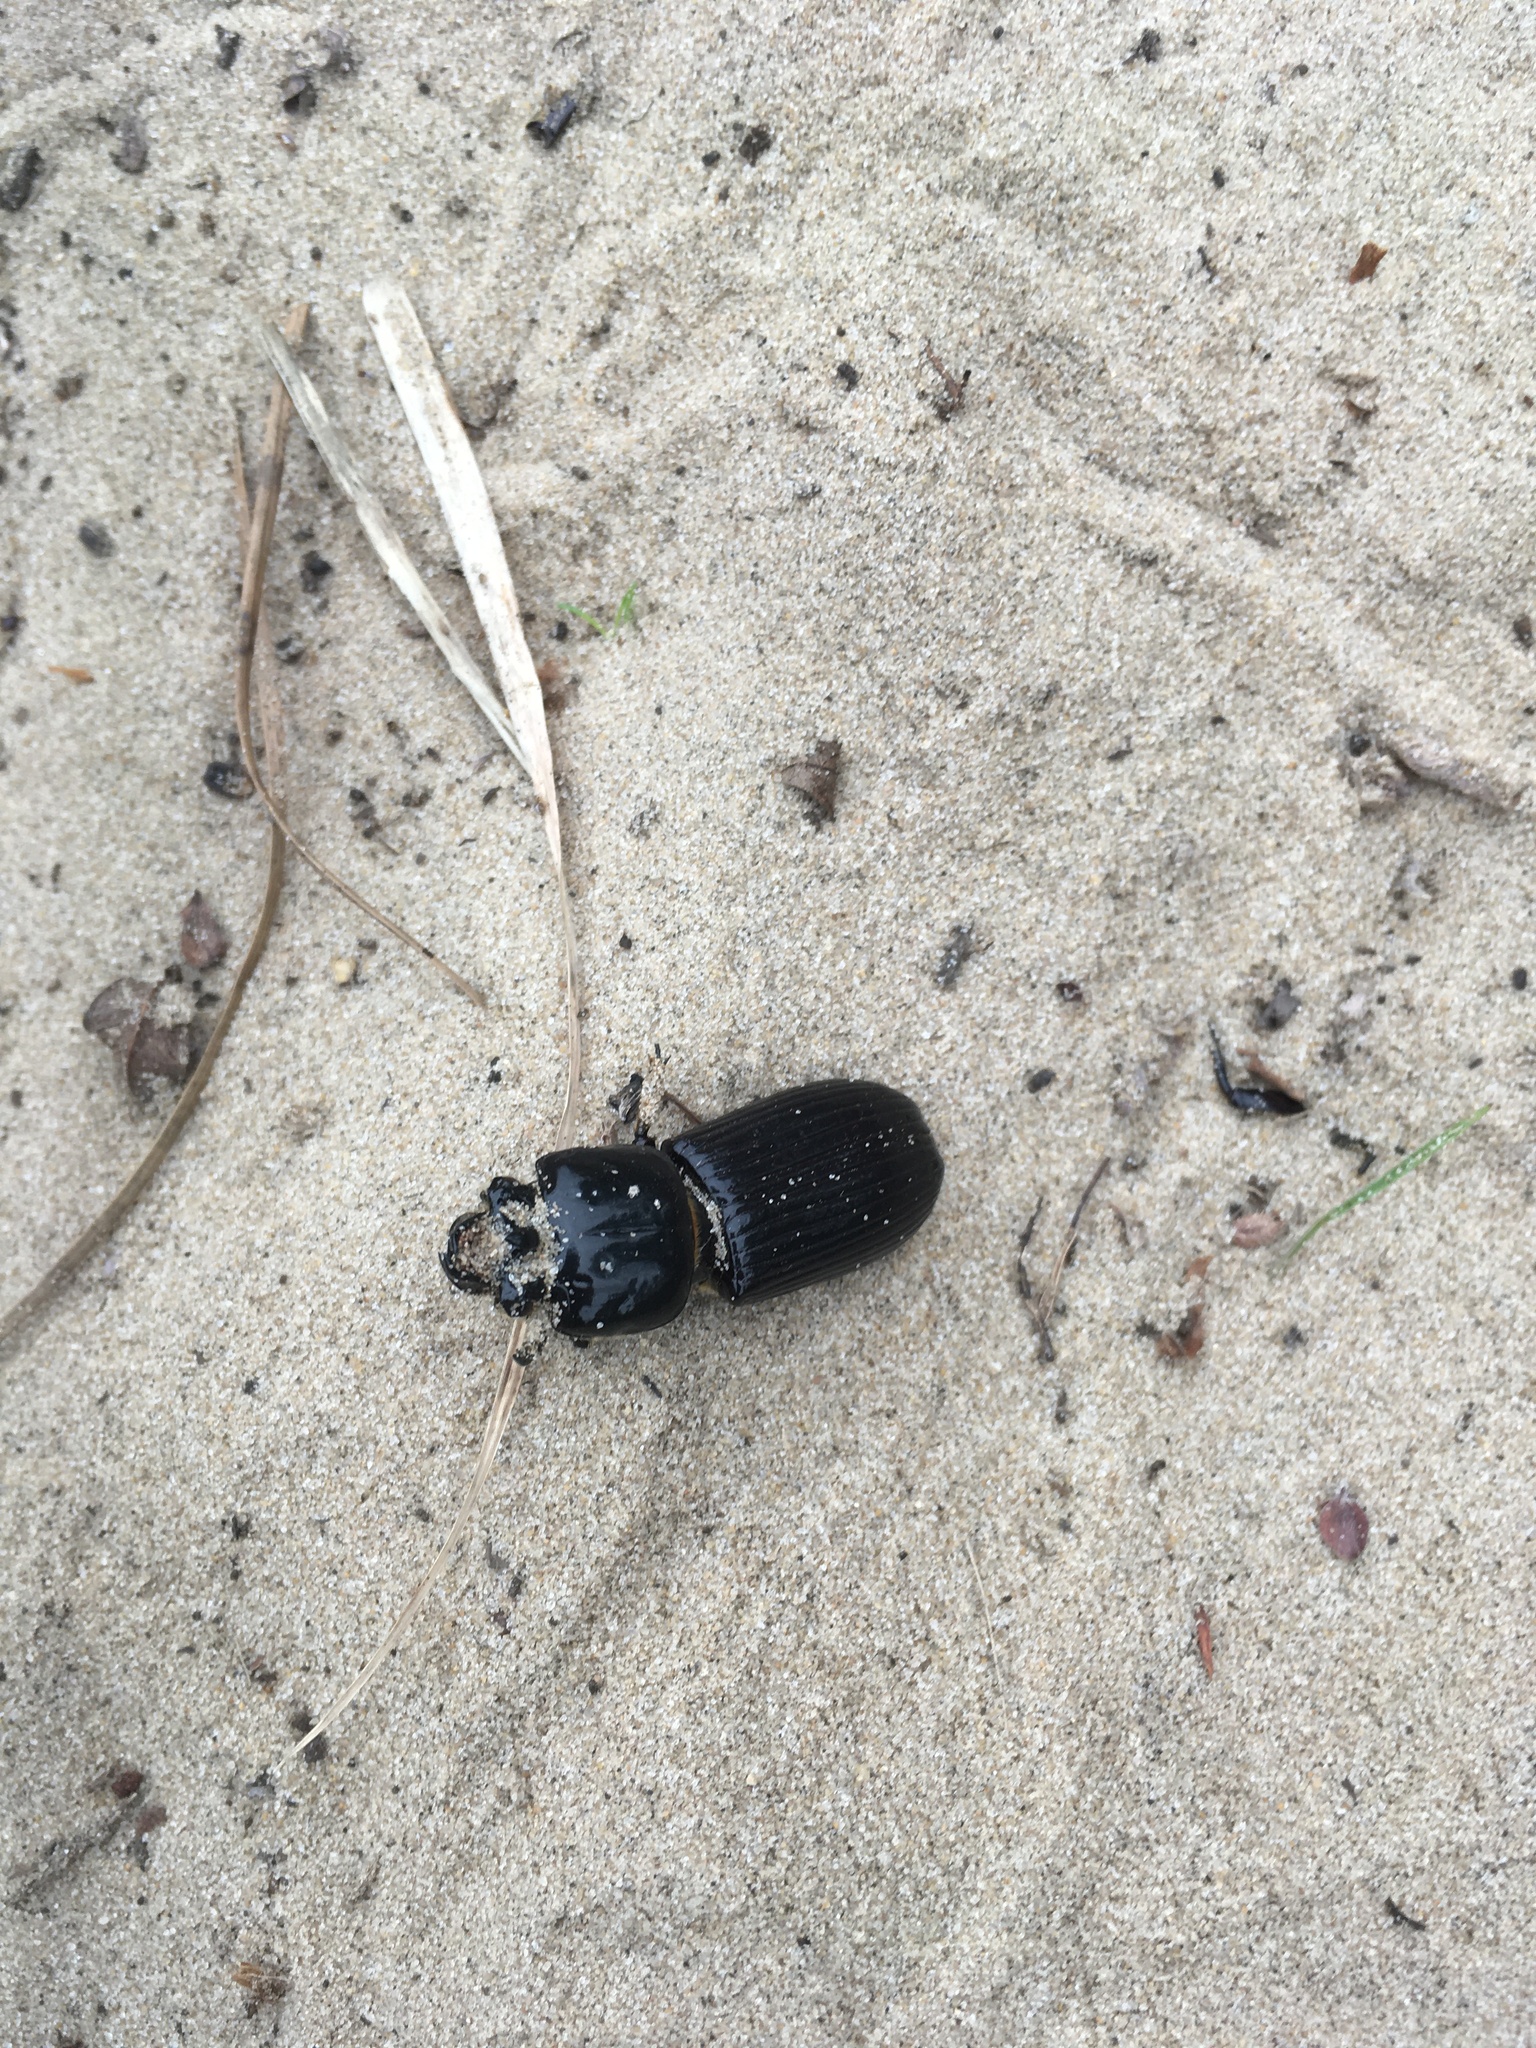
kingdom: Animalia
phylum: Arthropoda
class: Insecta
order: Coleoptera
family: Passalidae
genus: Odontotaenius
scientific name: Odontotaenius disjunctus
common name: Patent leather beetle
